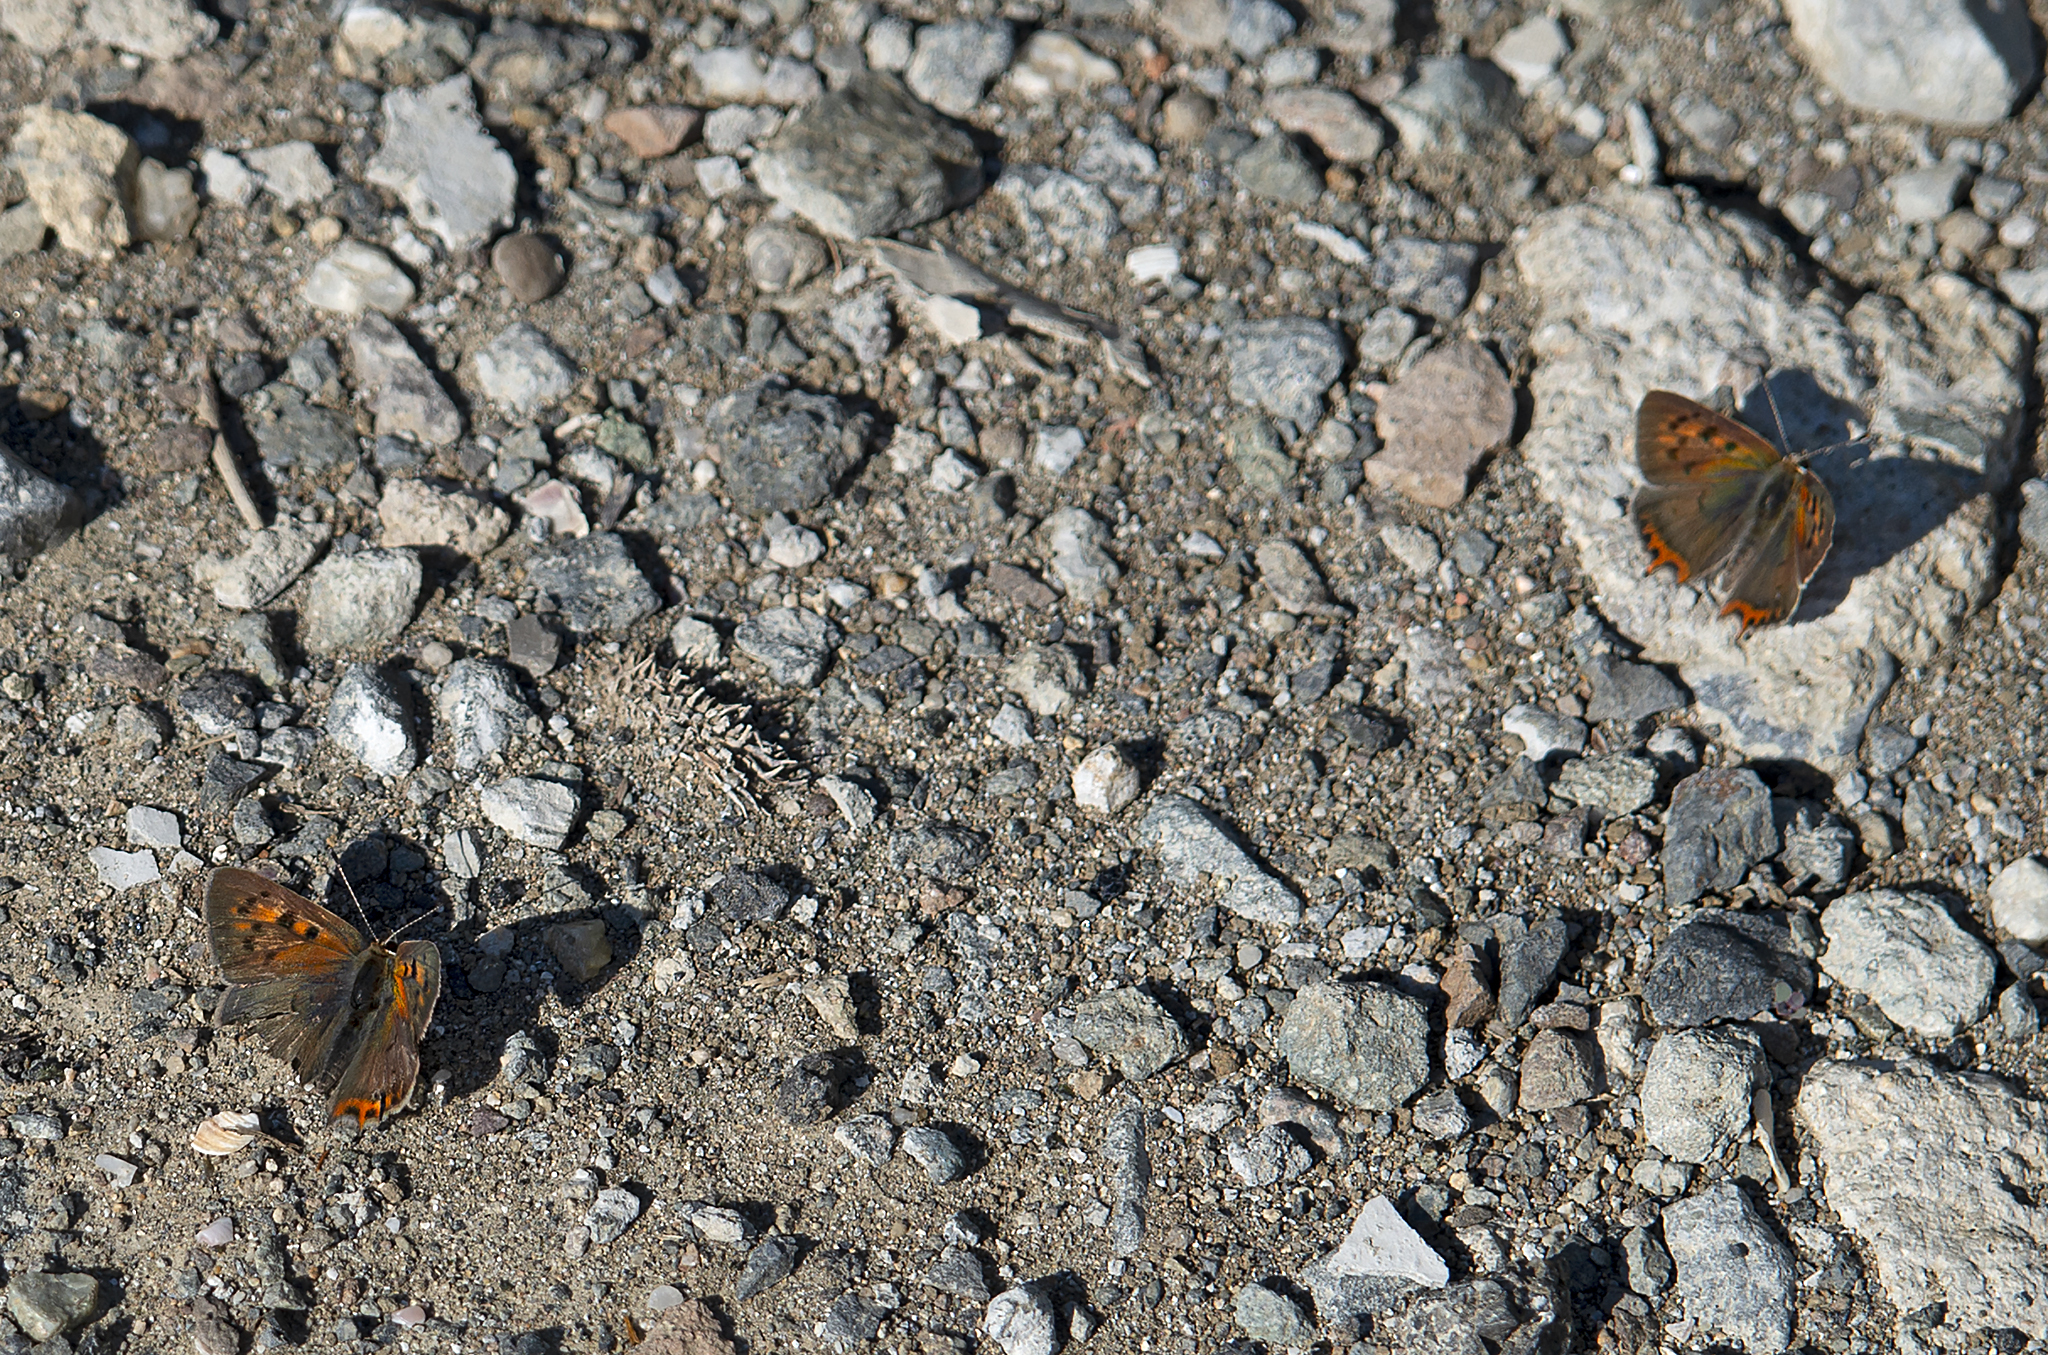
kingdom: Animalia
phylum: Arthropoda
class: Insecta
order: Lepidoptera
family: Lycaenidae
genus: Lycaena
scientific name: Lycaena phlaeas
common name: Small copper
